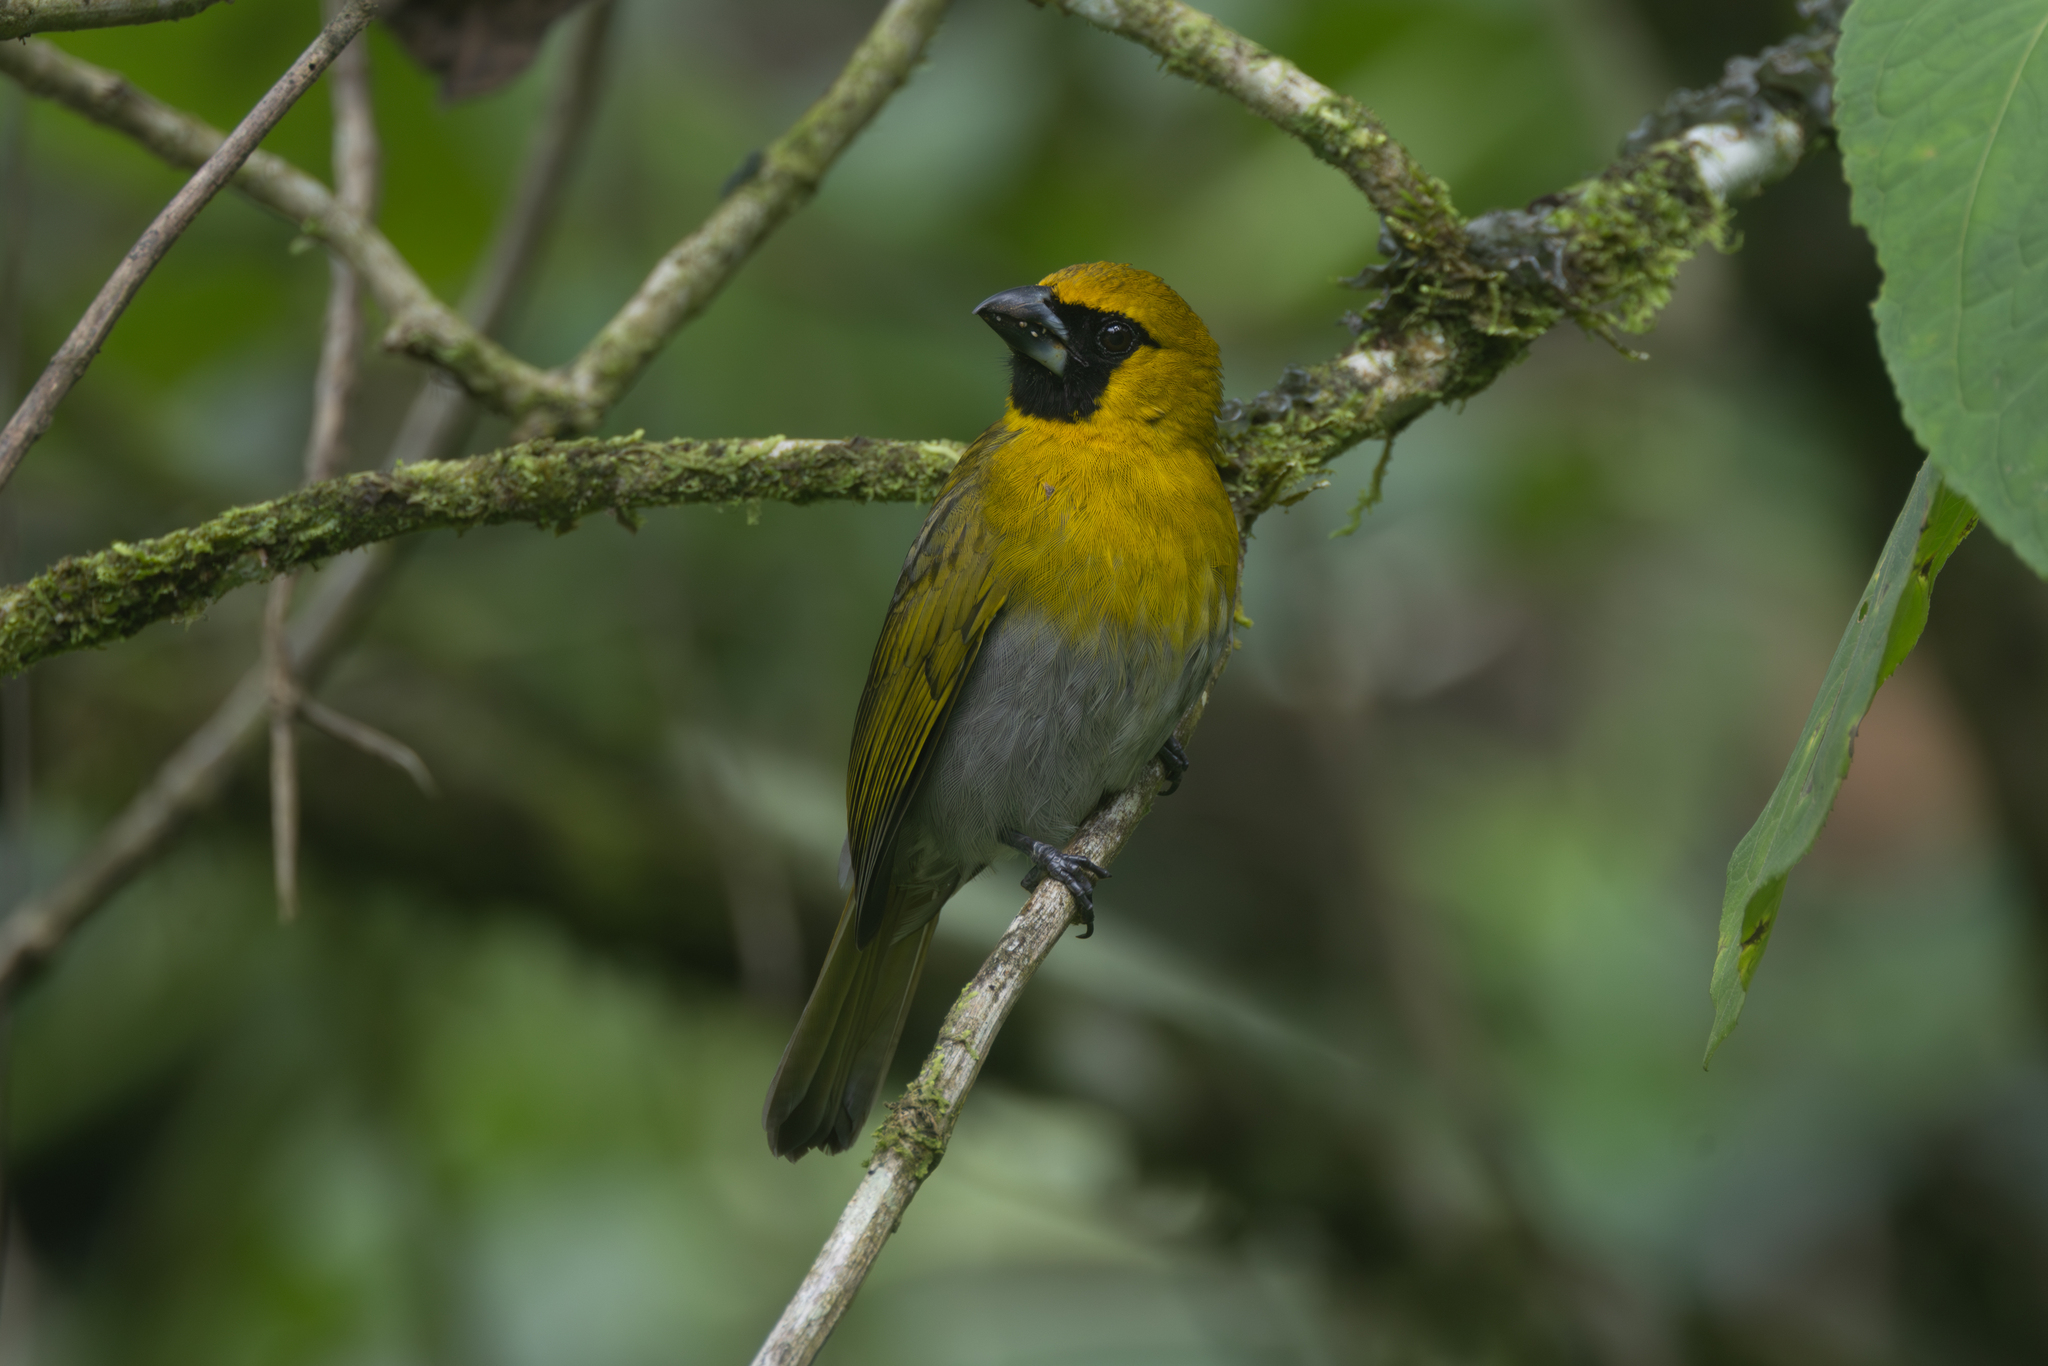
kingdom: Animalia
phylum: Chordata
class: Aves
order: Passeriformes
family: Cardinalidae
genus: Caryothraustes
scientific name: Caryothraustes poliogaster
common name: Black-faced grosbeak
